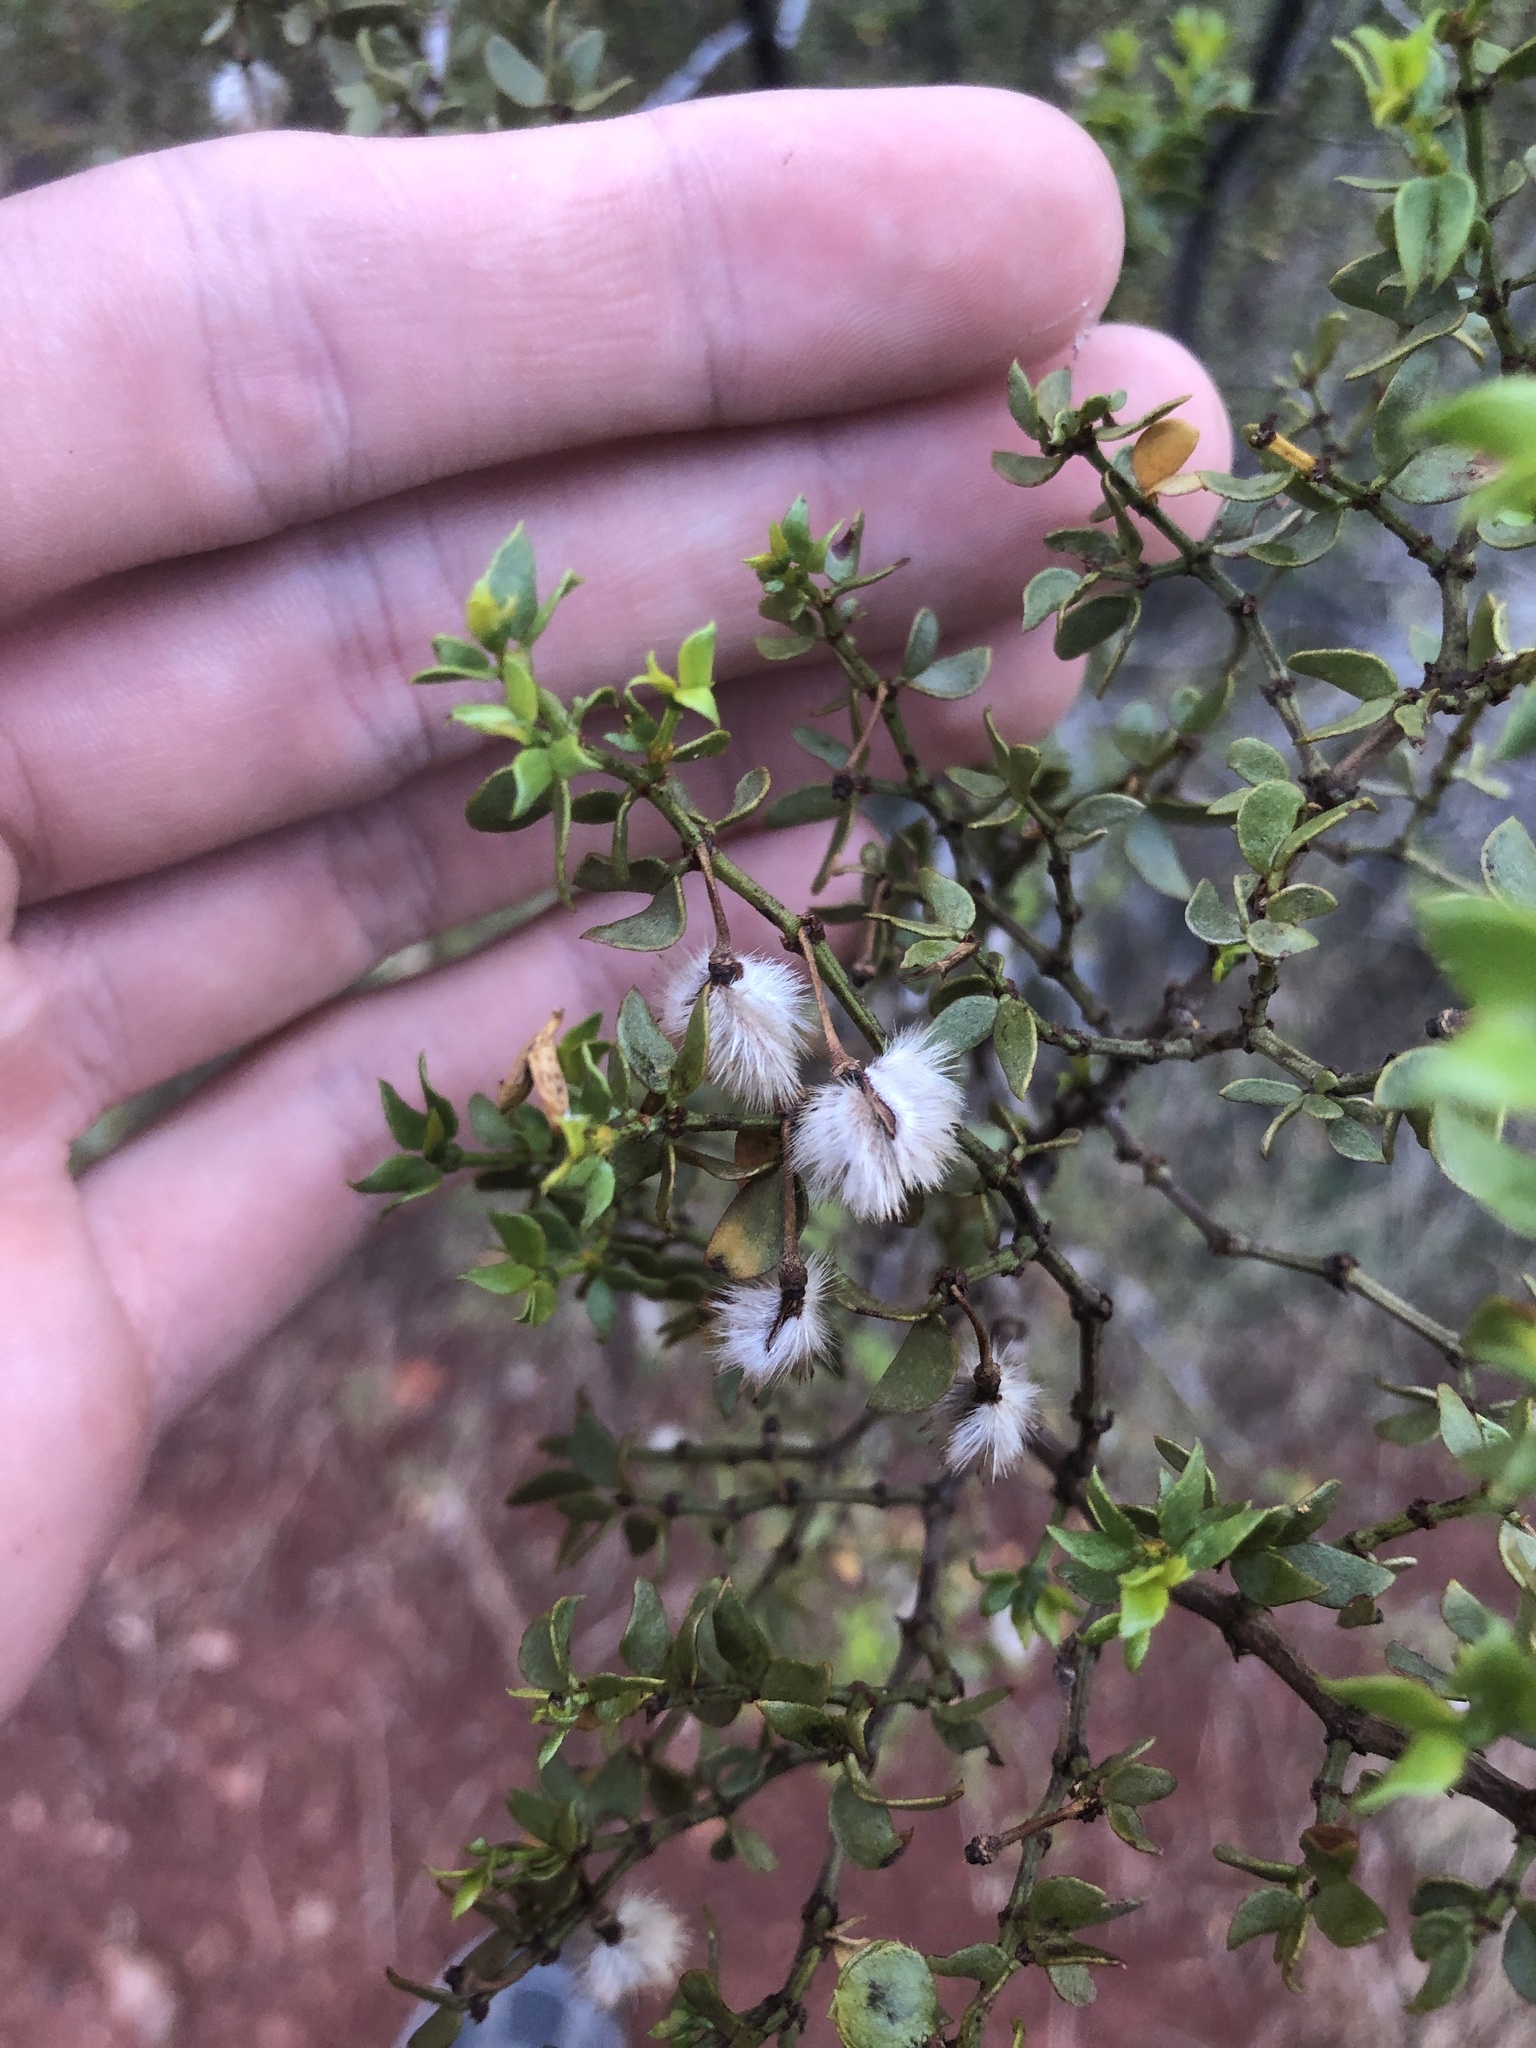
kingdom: Plantae
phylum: Tracheophyta
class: Magnoliopsida
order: Zygophyllales
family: Zygophyllaceae
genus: Larrea
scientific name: Larrea tridentata
